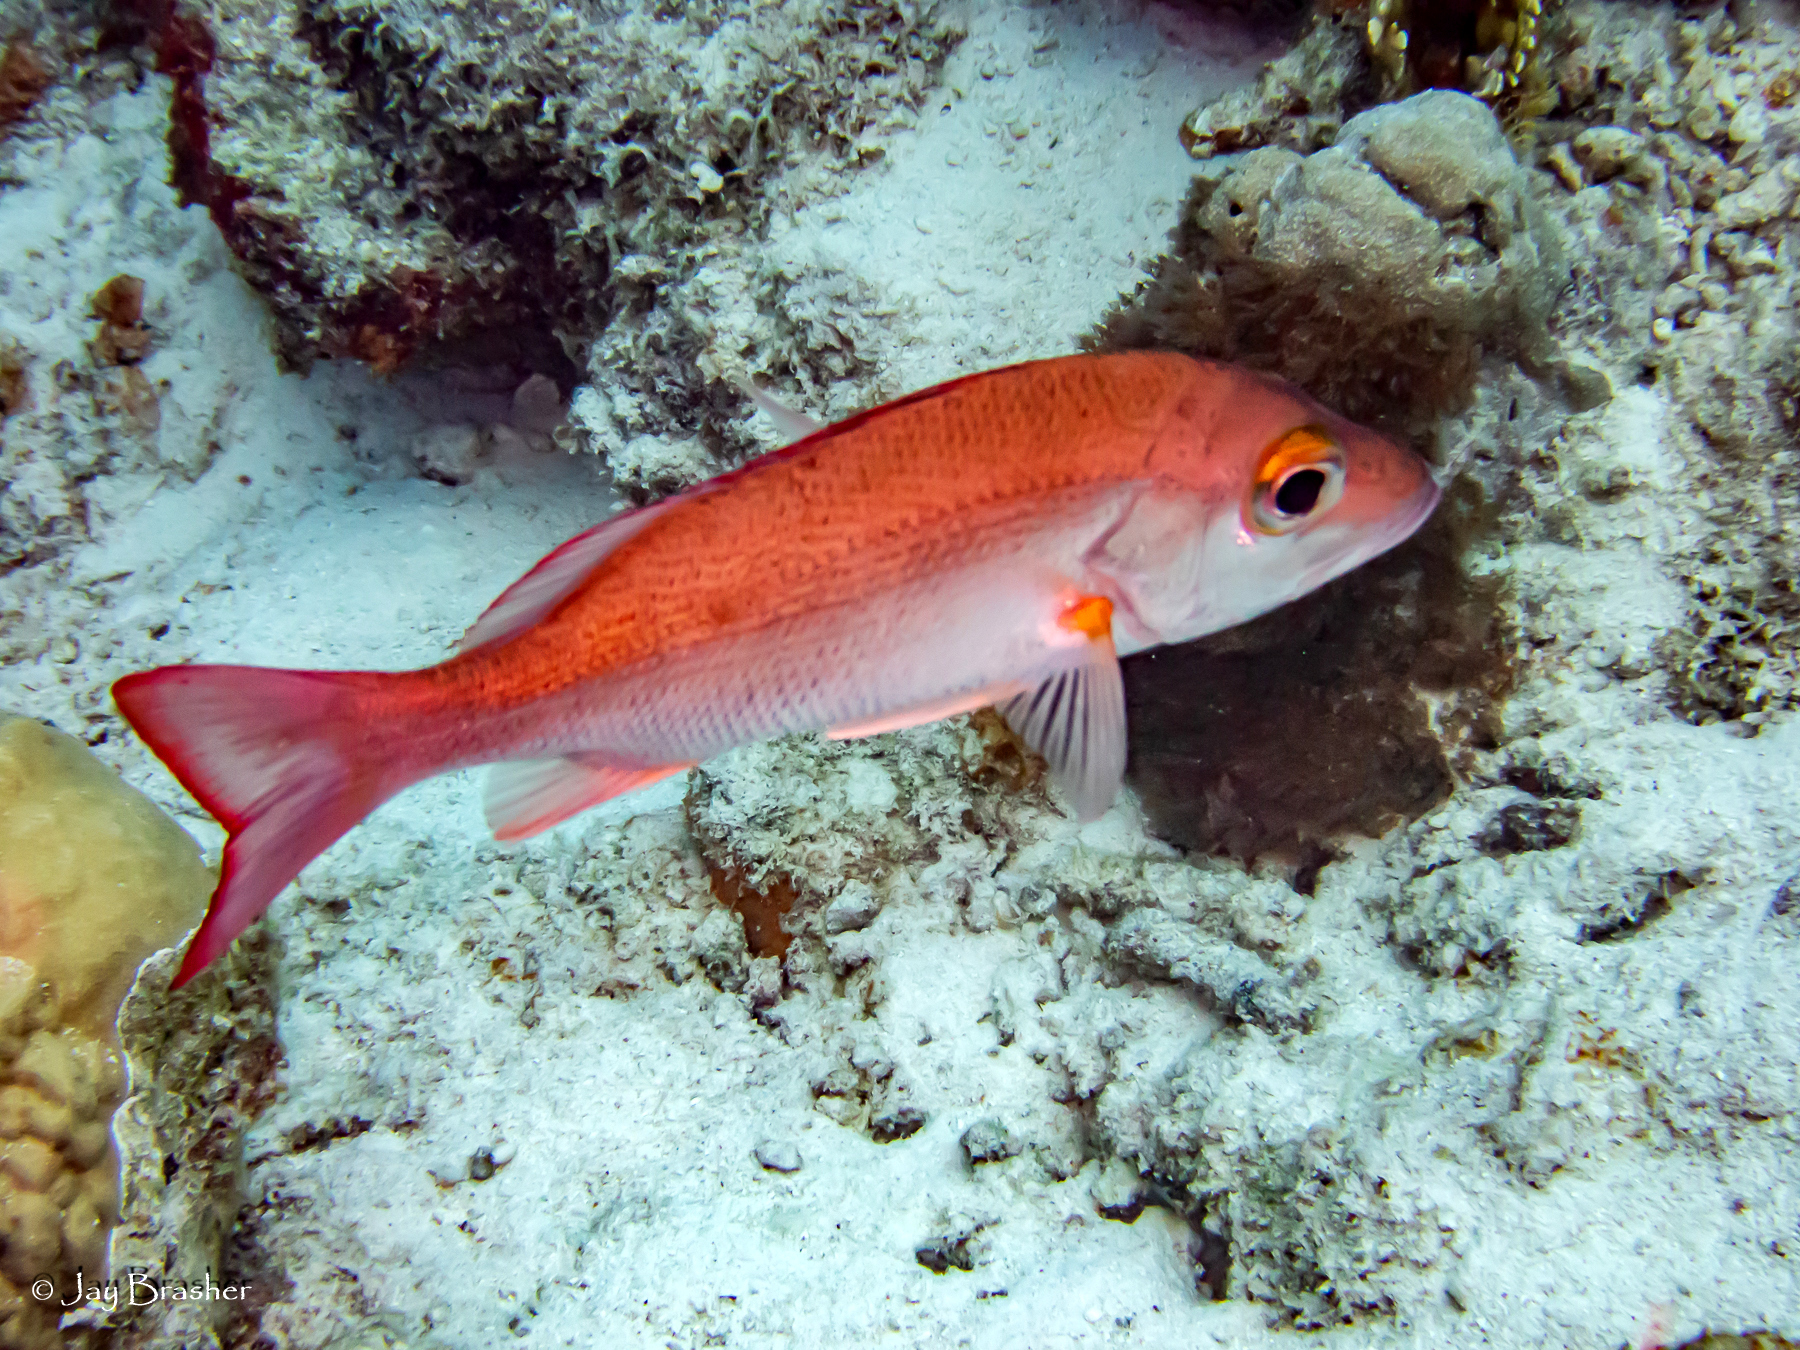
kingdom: Animalia
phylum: Chordata
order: Perciformes
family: Lutjanidae
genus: Lutjanus
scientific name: Lutjanus mahogoni
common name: Spot snapper
